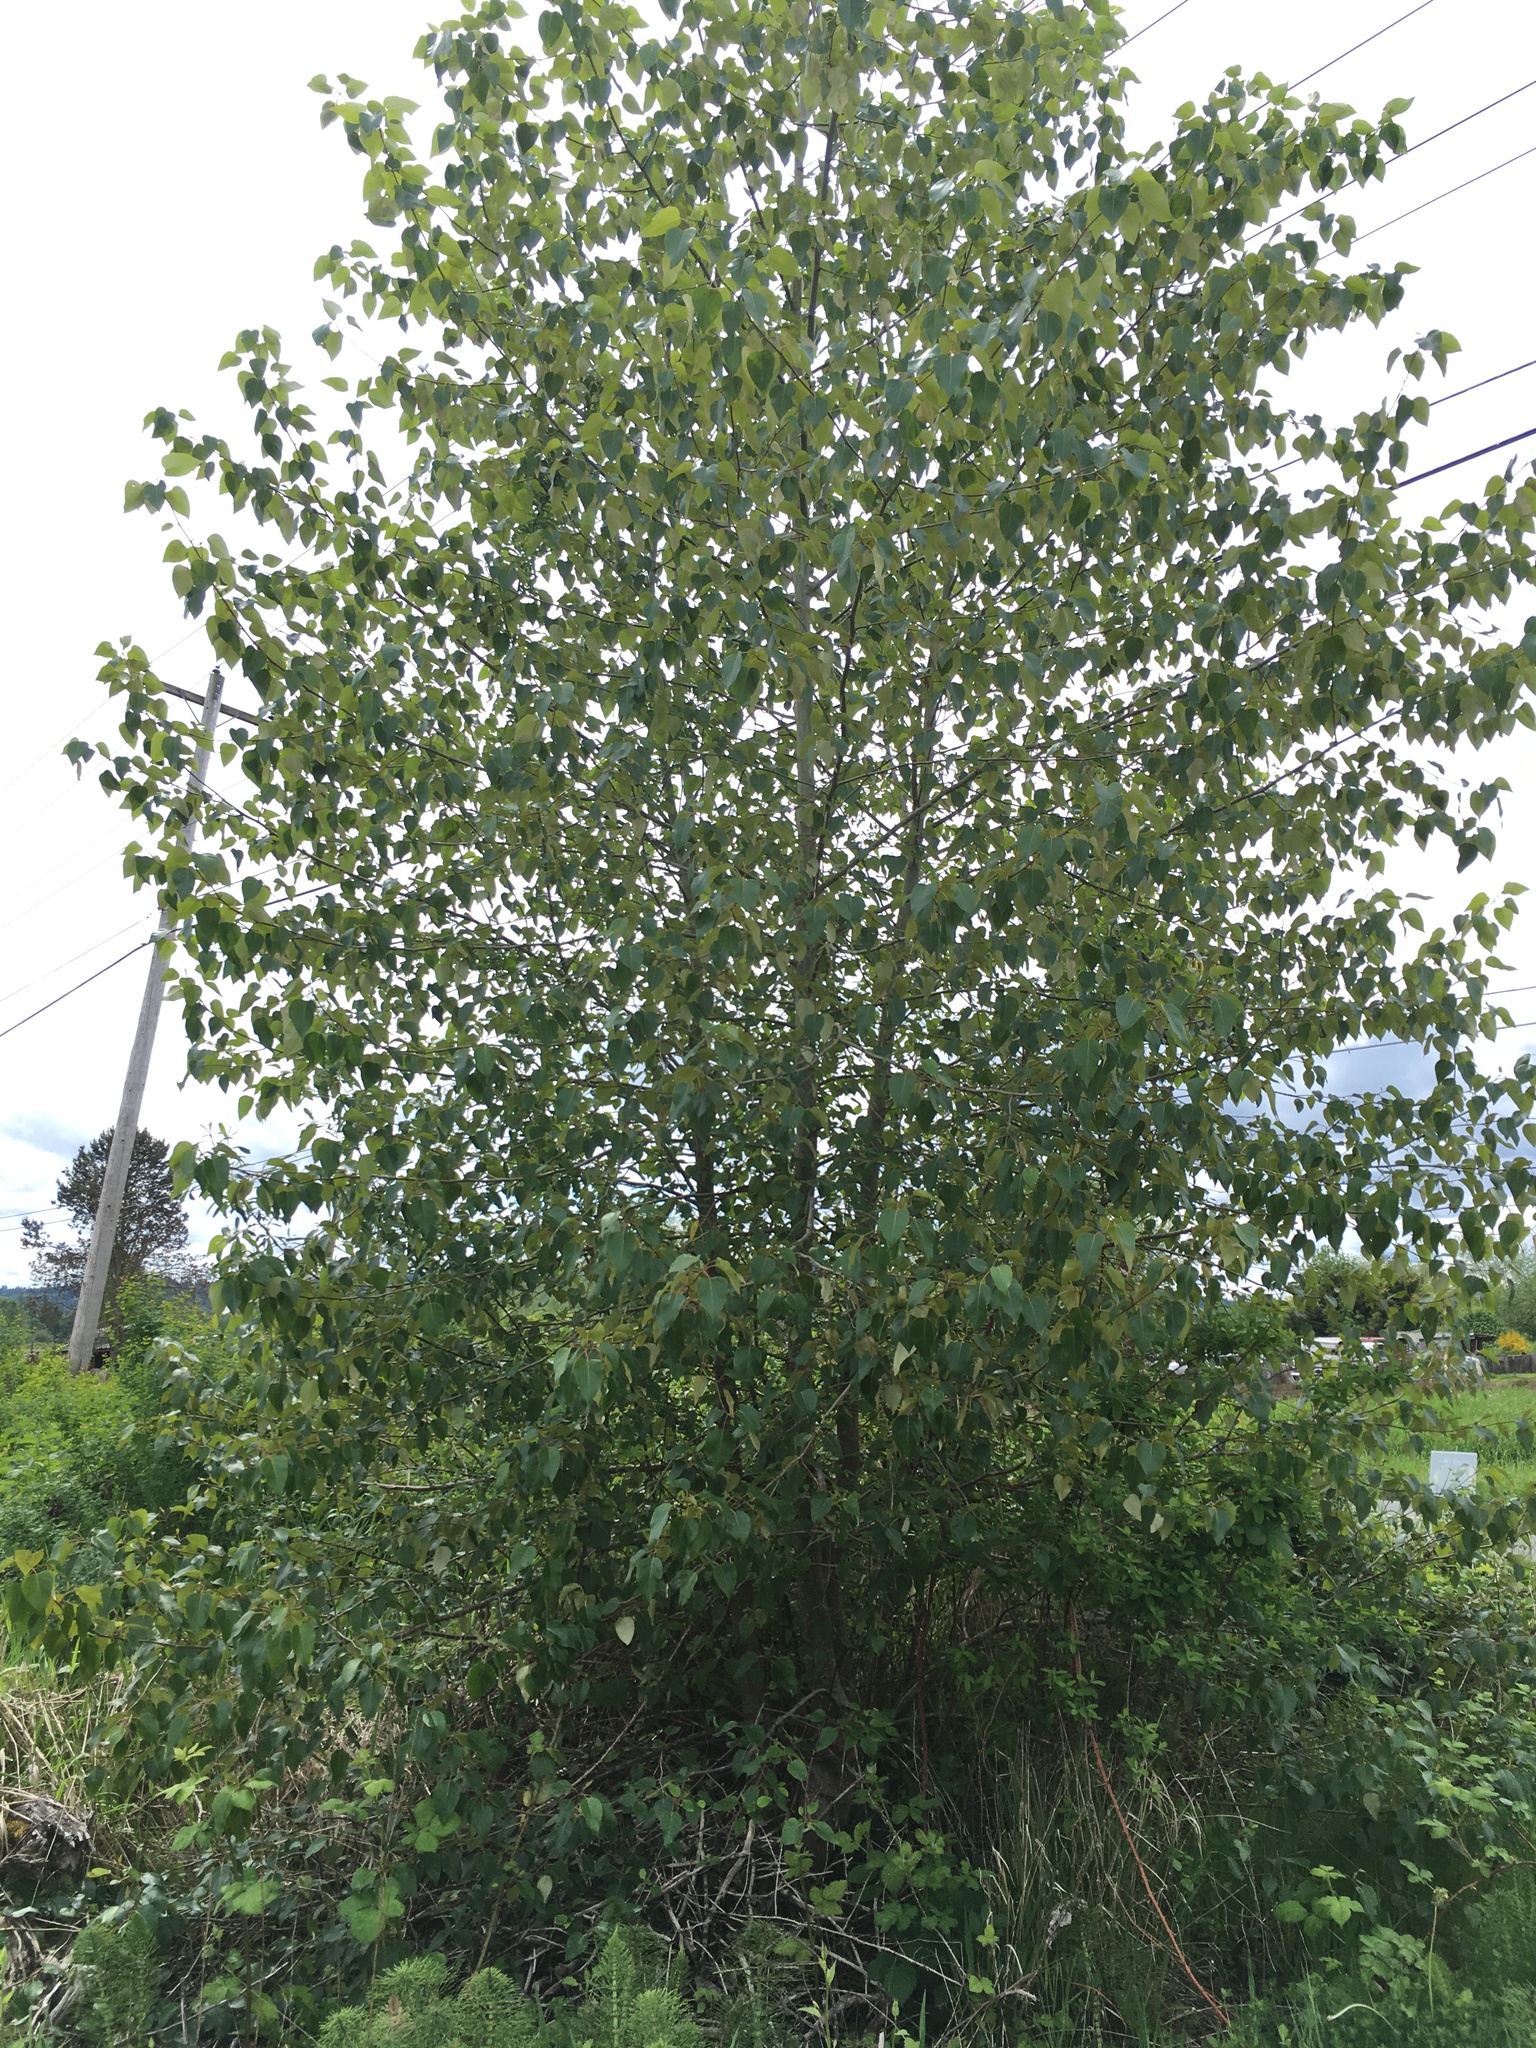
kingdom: Plantae
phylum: Tracheophyta
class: Magnoliopsida
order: Malpighiales
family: Salicaceae
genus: Populus
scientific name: Populus trichocarpa
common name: Black cottonwood
